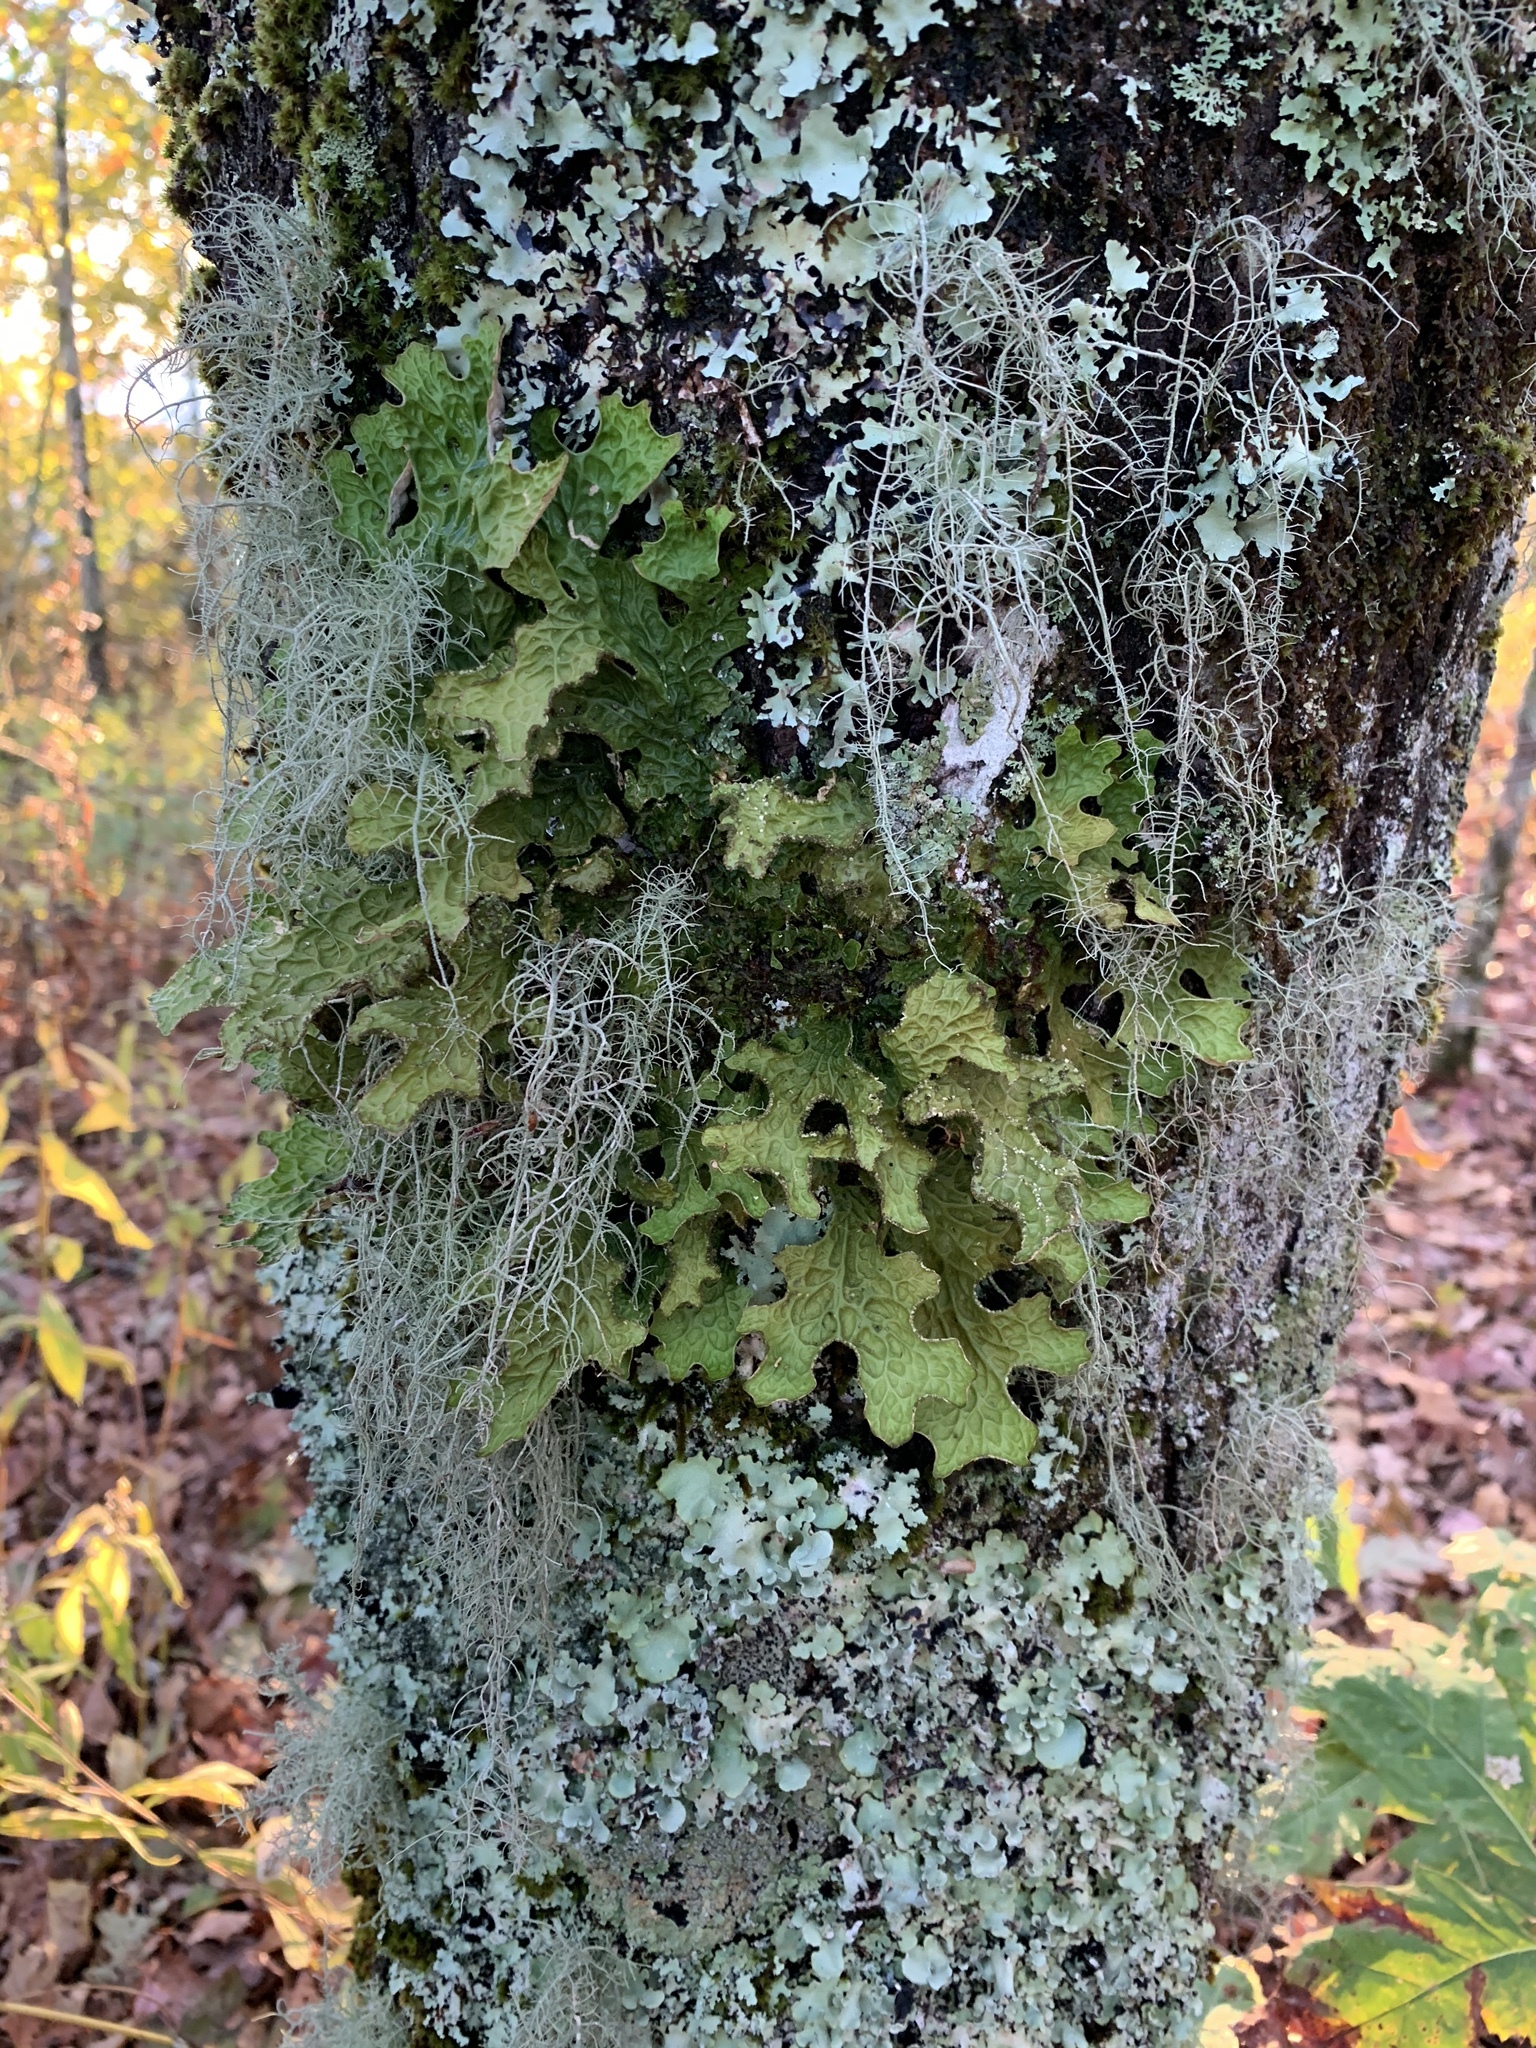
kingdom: Fungi
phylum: Ascomycota
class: Lecanoromycetes
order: Peltigerales
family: Lobariaceae
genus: Lobaria
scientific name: Lobaria pulmonaria
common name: Lungwort
